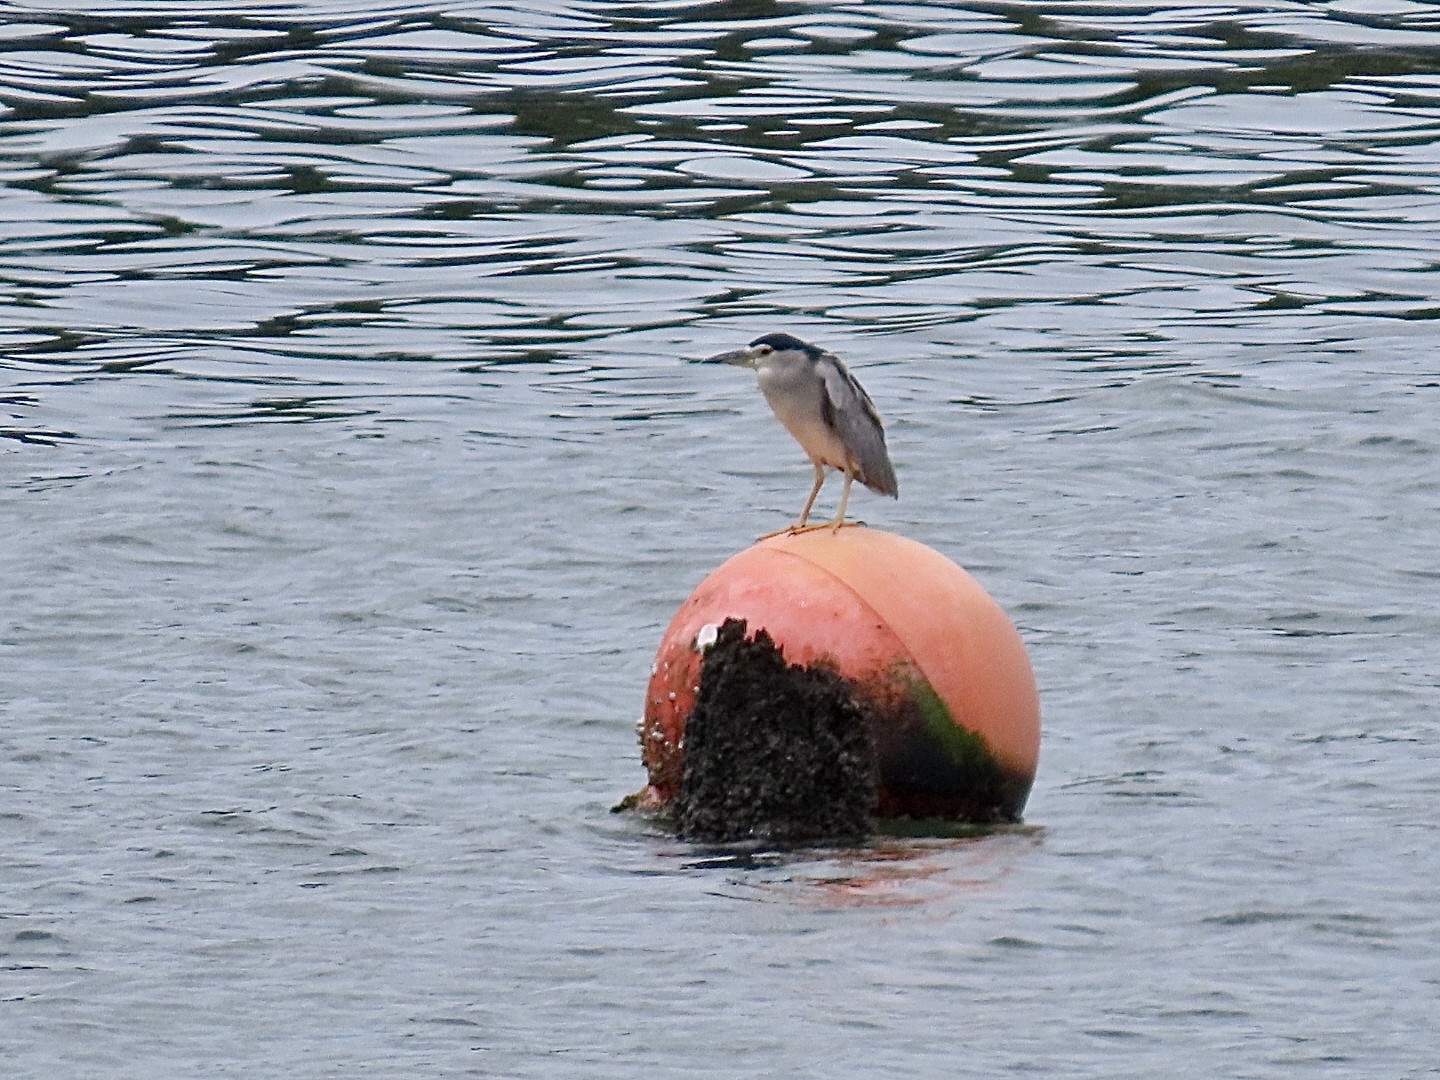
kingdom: Animalia
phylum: Chordata
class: Aves
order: Pelecaniformes
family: Ardeidae
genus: Nycticorax
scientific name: Nycticorax nycticorax
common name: Black-crowned night heron
